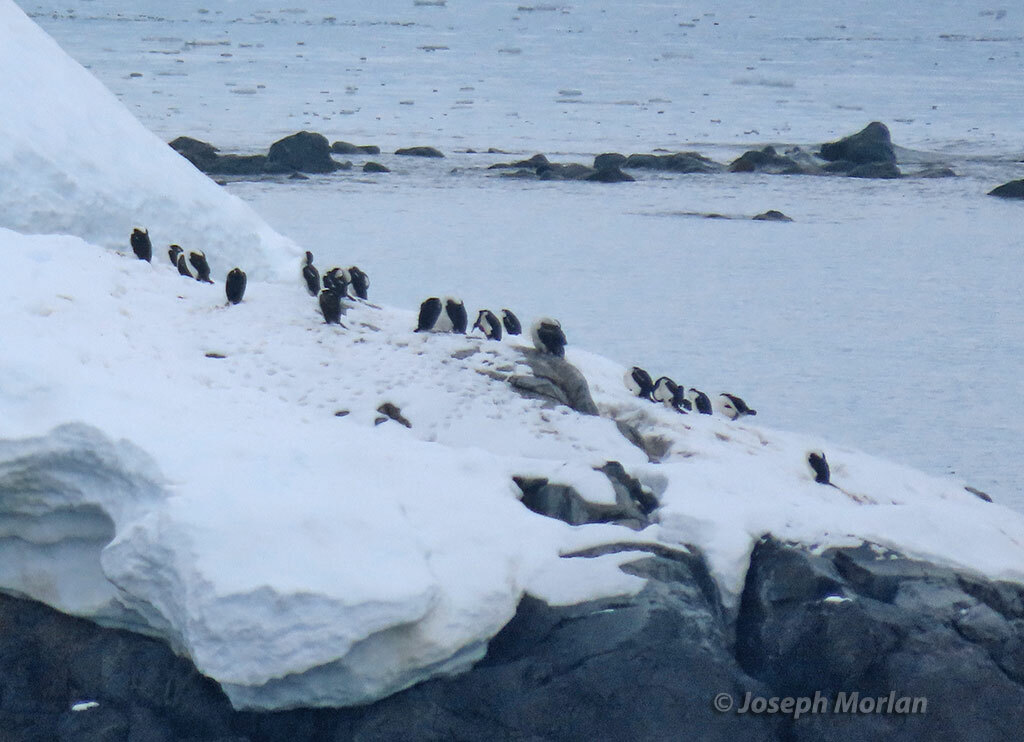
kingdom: Animalia
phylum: Chordata
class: Aves
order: Suliformes
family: Phalacrocoracidae
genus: Leucocarbo
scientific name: Leucocarbo atriceps
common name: Imperial shag
